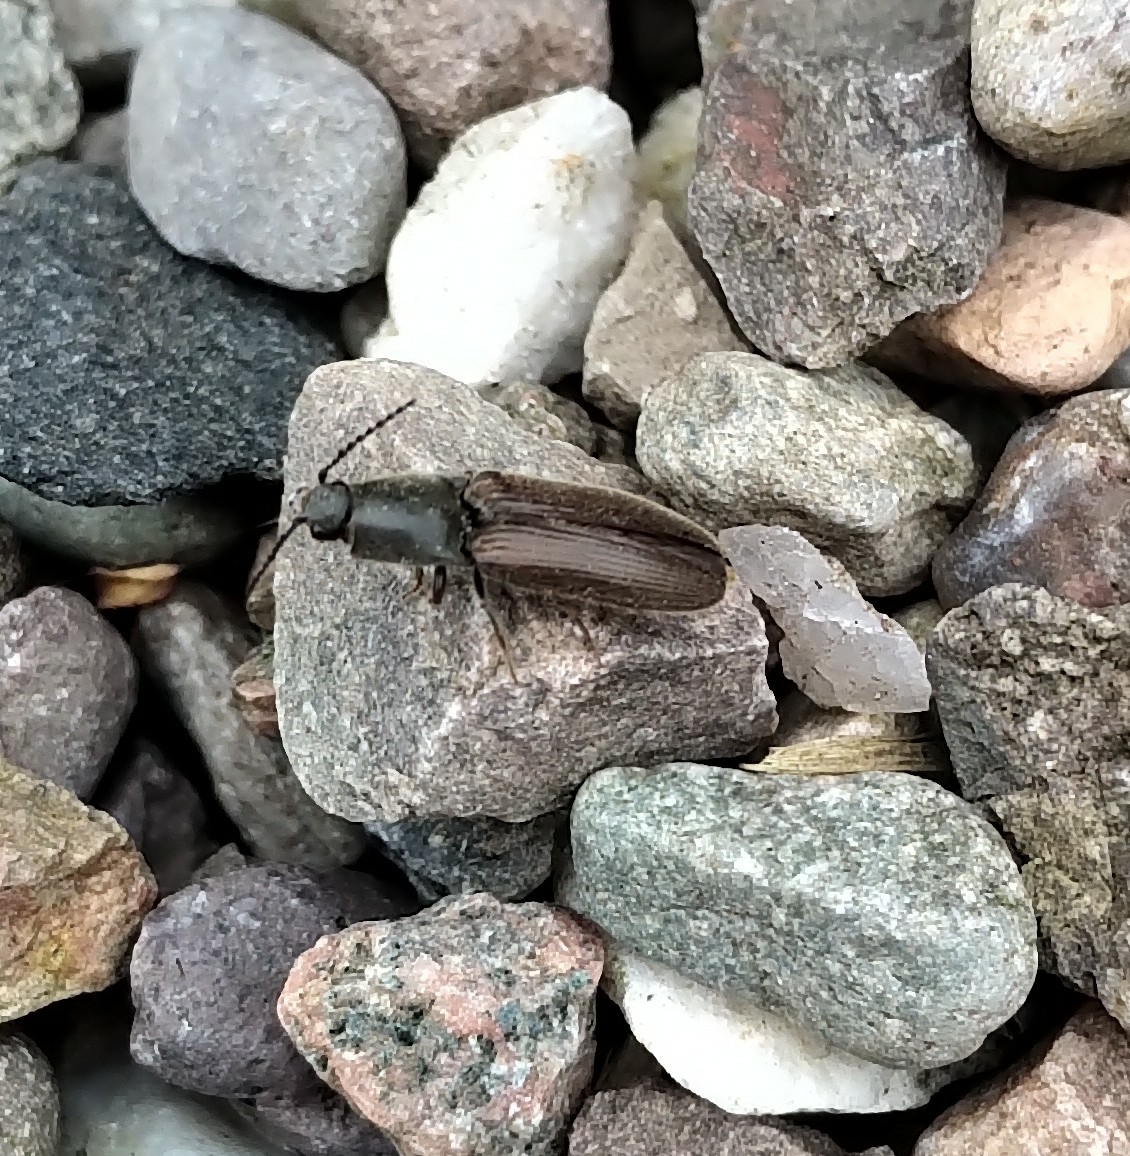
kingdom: Animalia
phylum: Arthropoda
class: Insecta
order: Coleoptera
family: Elateridae
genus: Athous
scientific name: Athous haemorrhoidalis
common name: Red-brown click beetle
